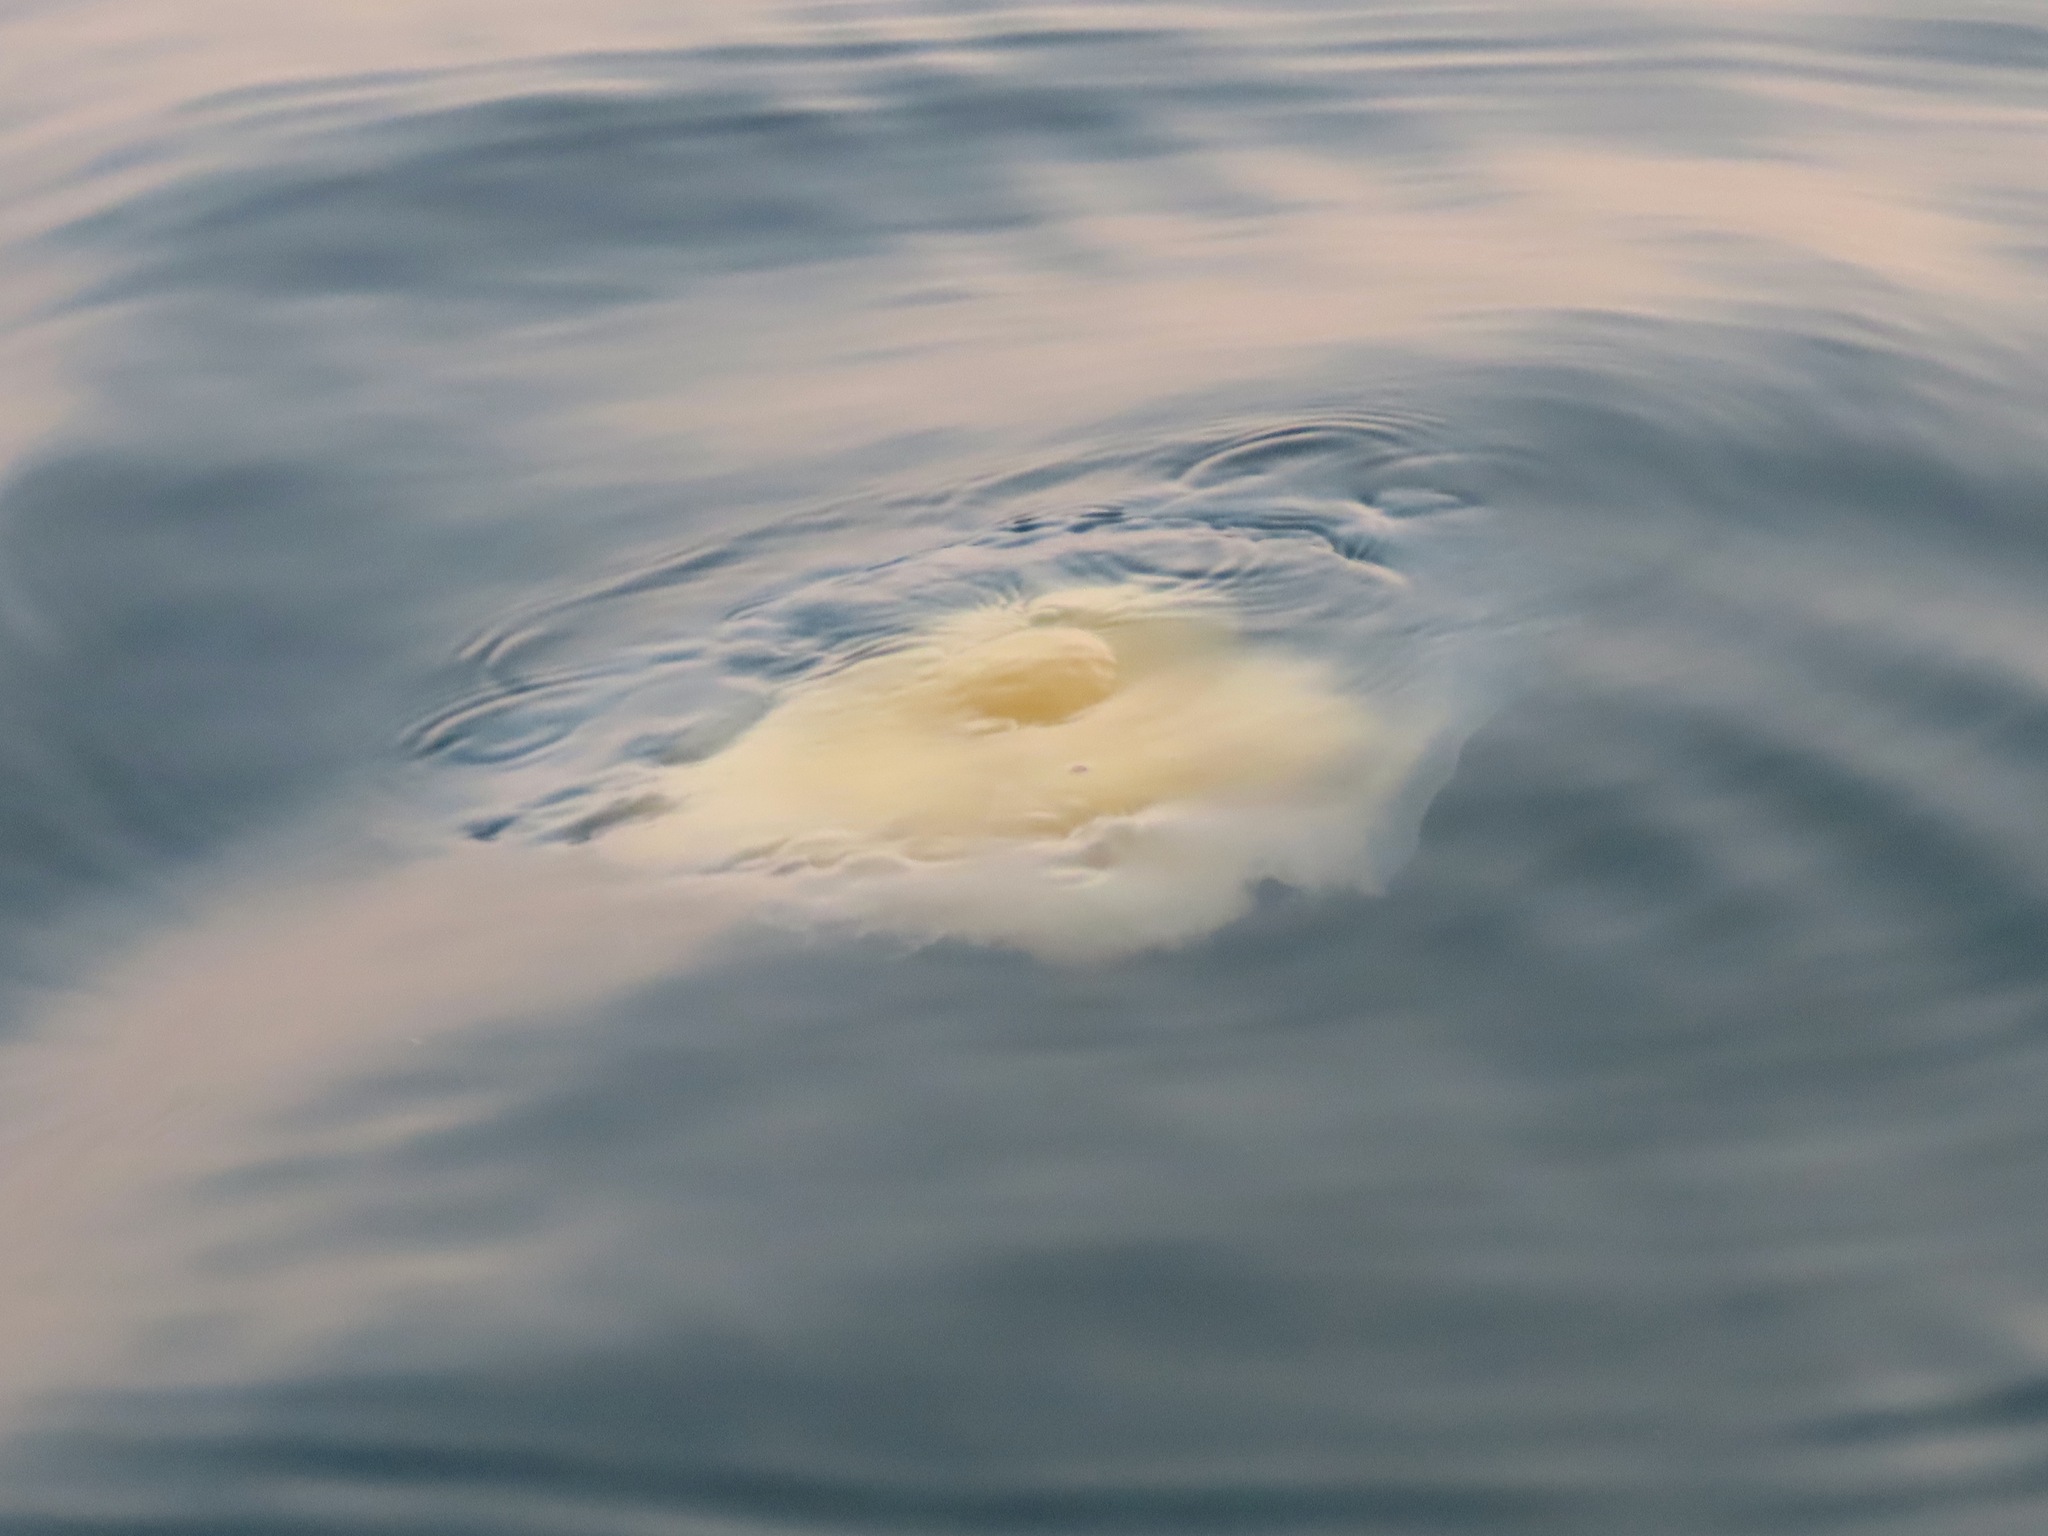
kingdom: Animalia
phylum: Cnidaria
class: Scyphozoa
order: Semaeostomeae
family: Phacellophoridae
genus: Phacellophora
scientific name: Phacellophora camtschatica
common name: Fried-egg jellyfish
